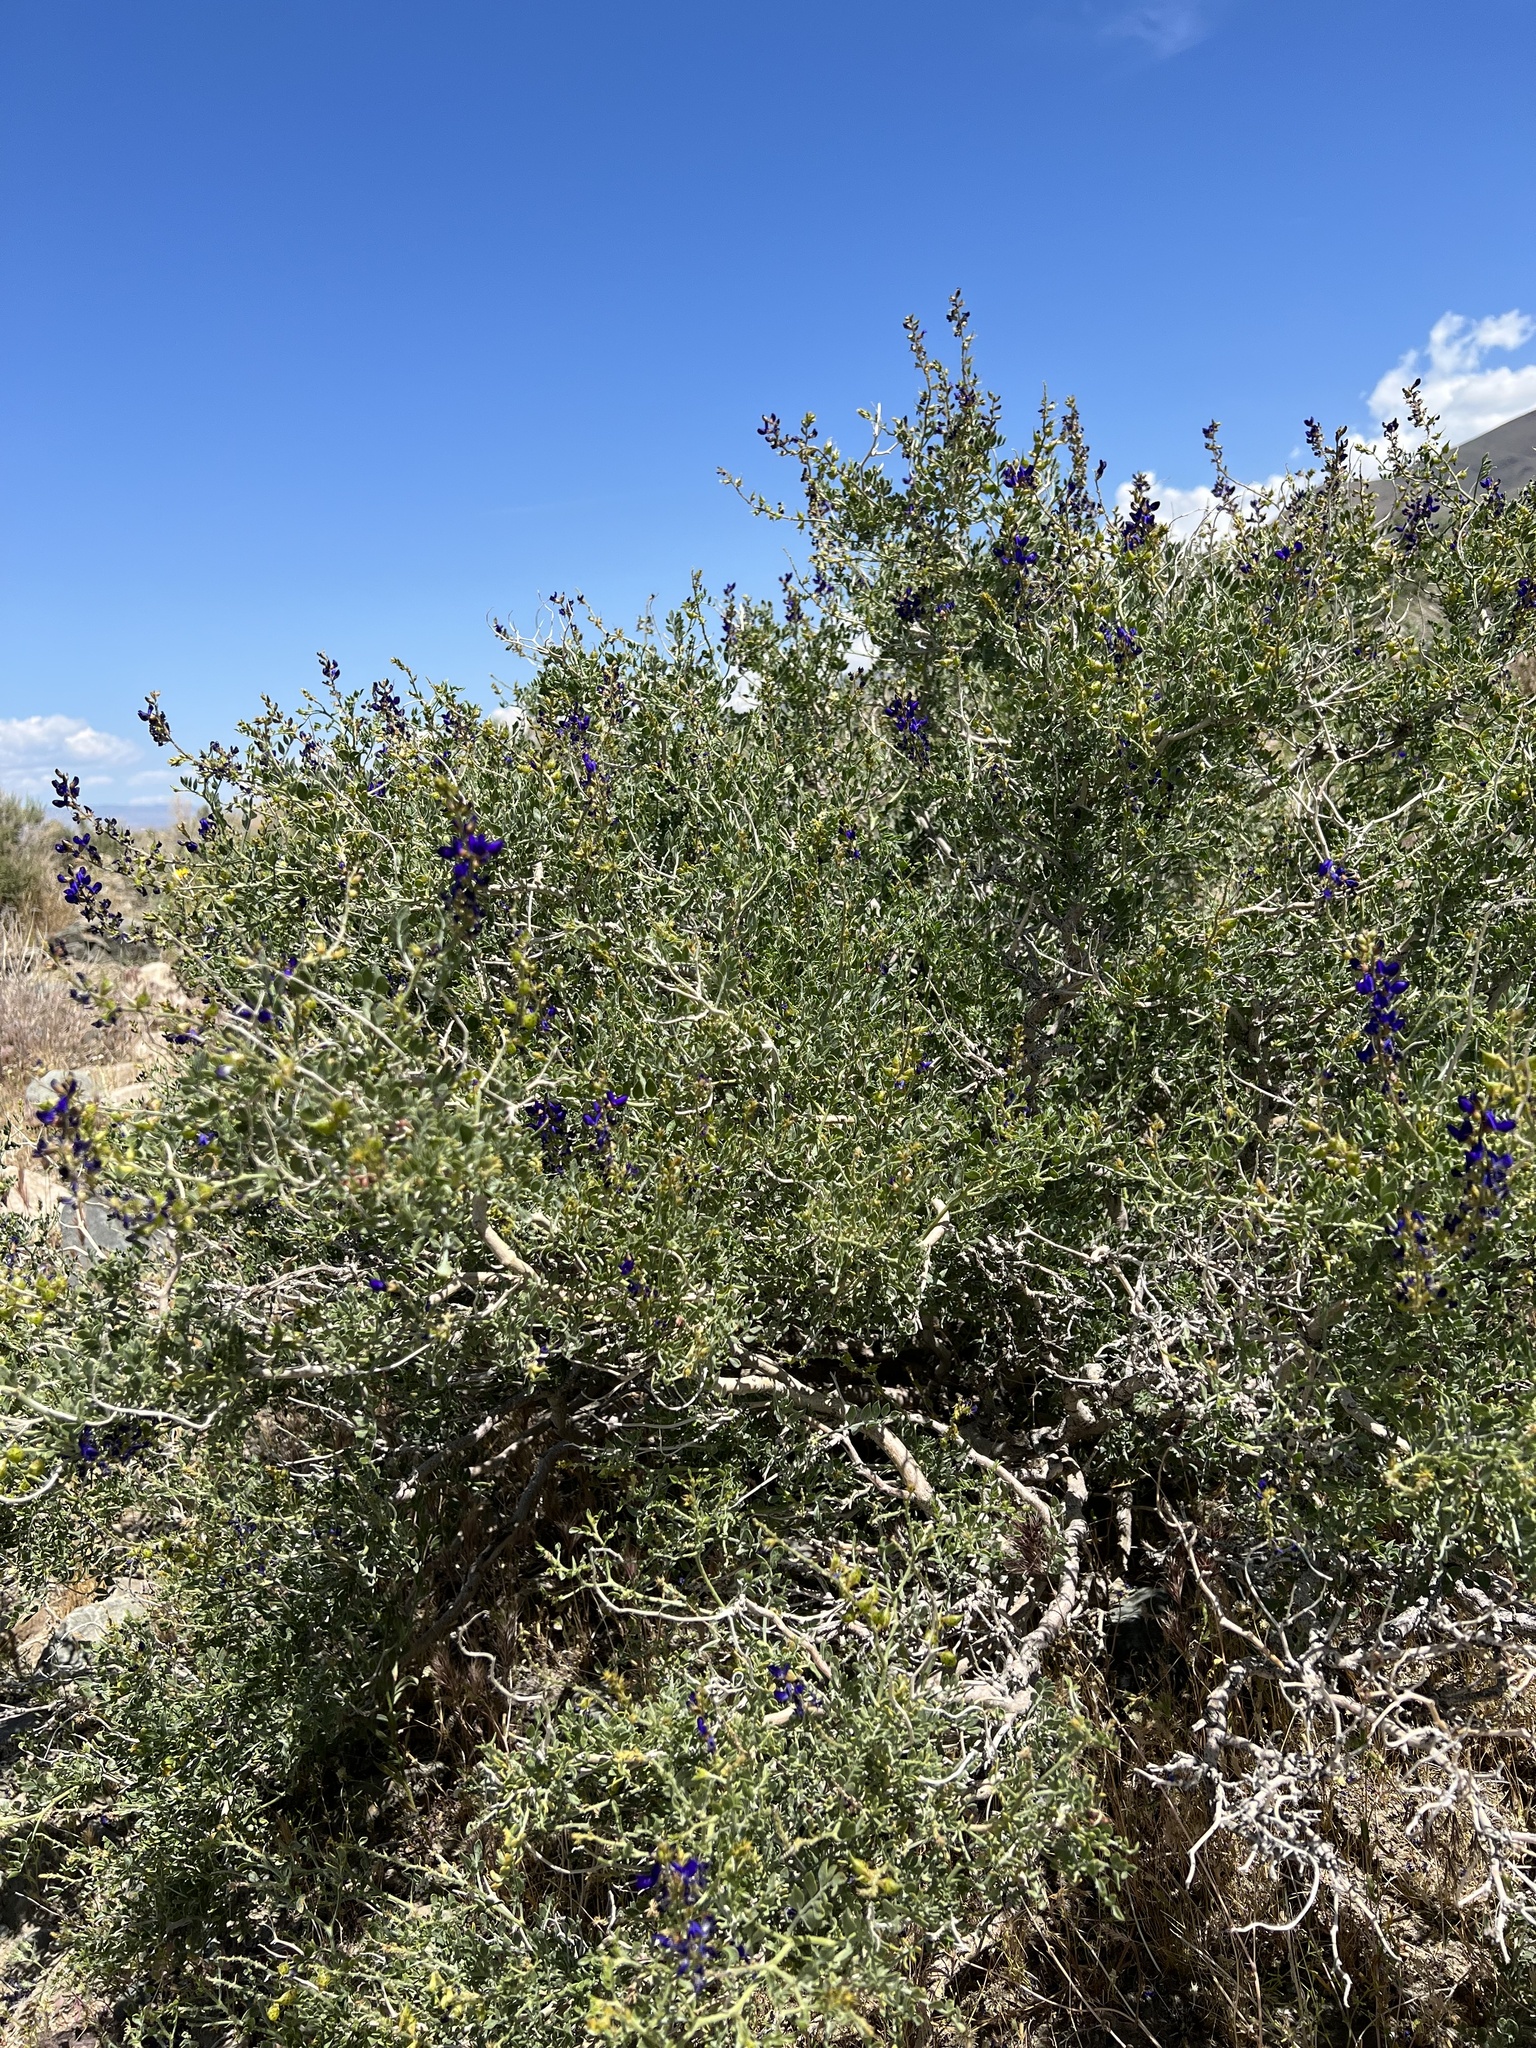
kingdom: Plantae
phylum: Tracheophyta
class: Magnoliopsida
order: Fabales
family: Fabaceae
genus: Psorothamnus
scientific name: Psorothamnus arborescens
